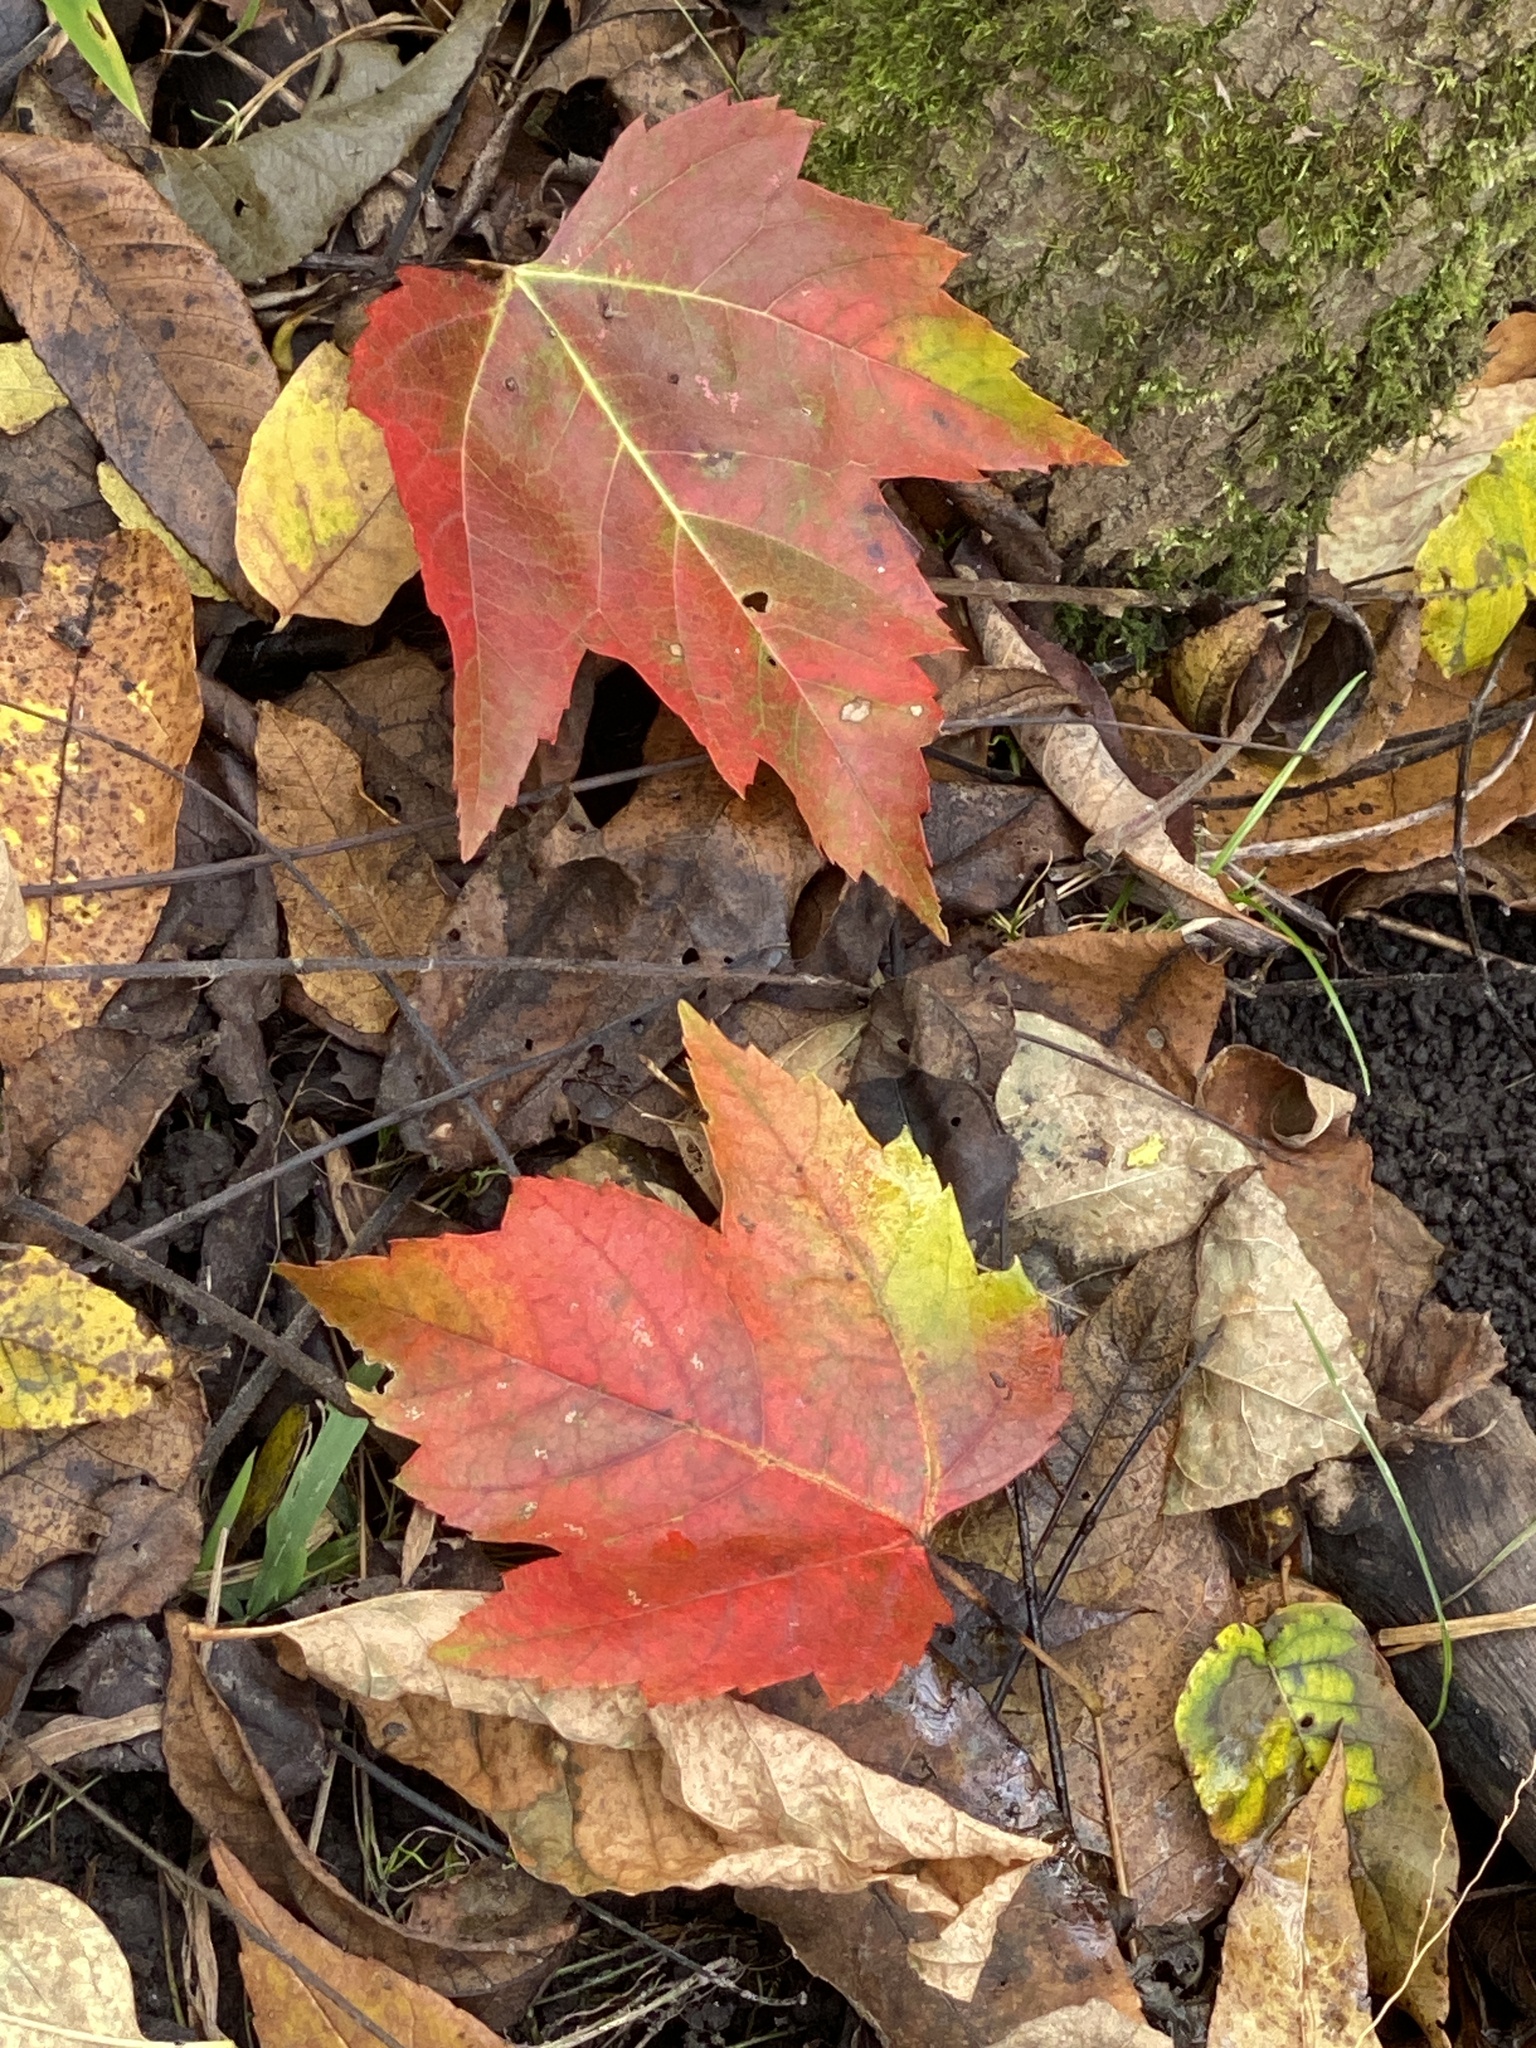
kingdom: Plantae
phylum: Tracheophyta
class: Magnoliopsida
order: Sapindales
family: Sapindaceae
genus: Acer
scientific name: Acer rubrum
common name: Red maple
